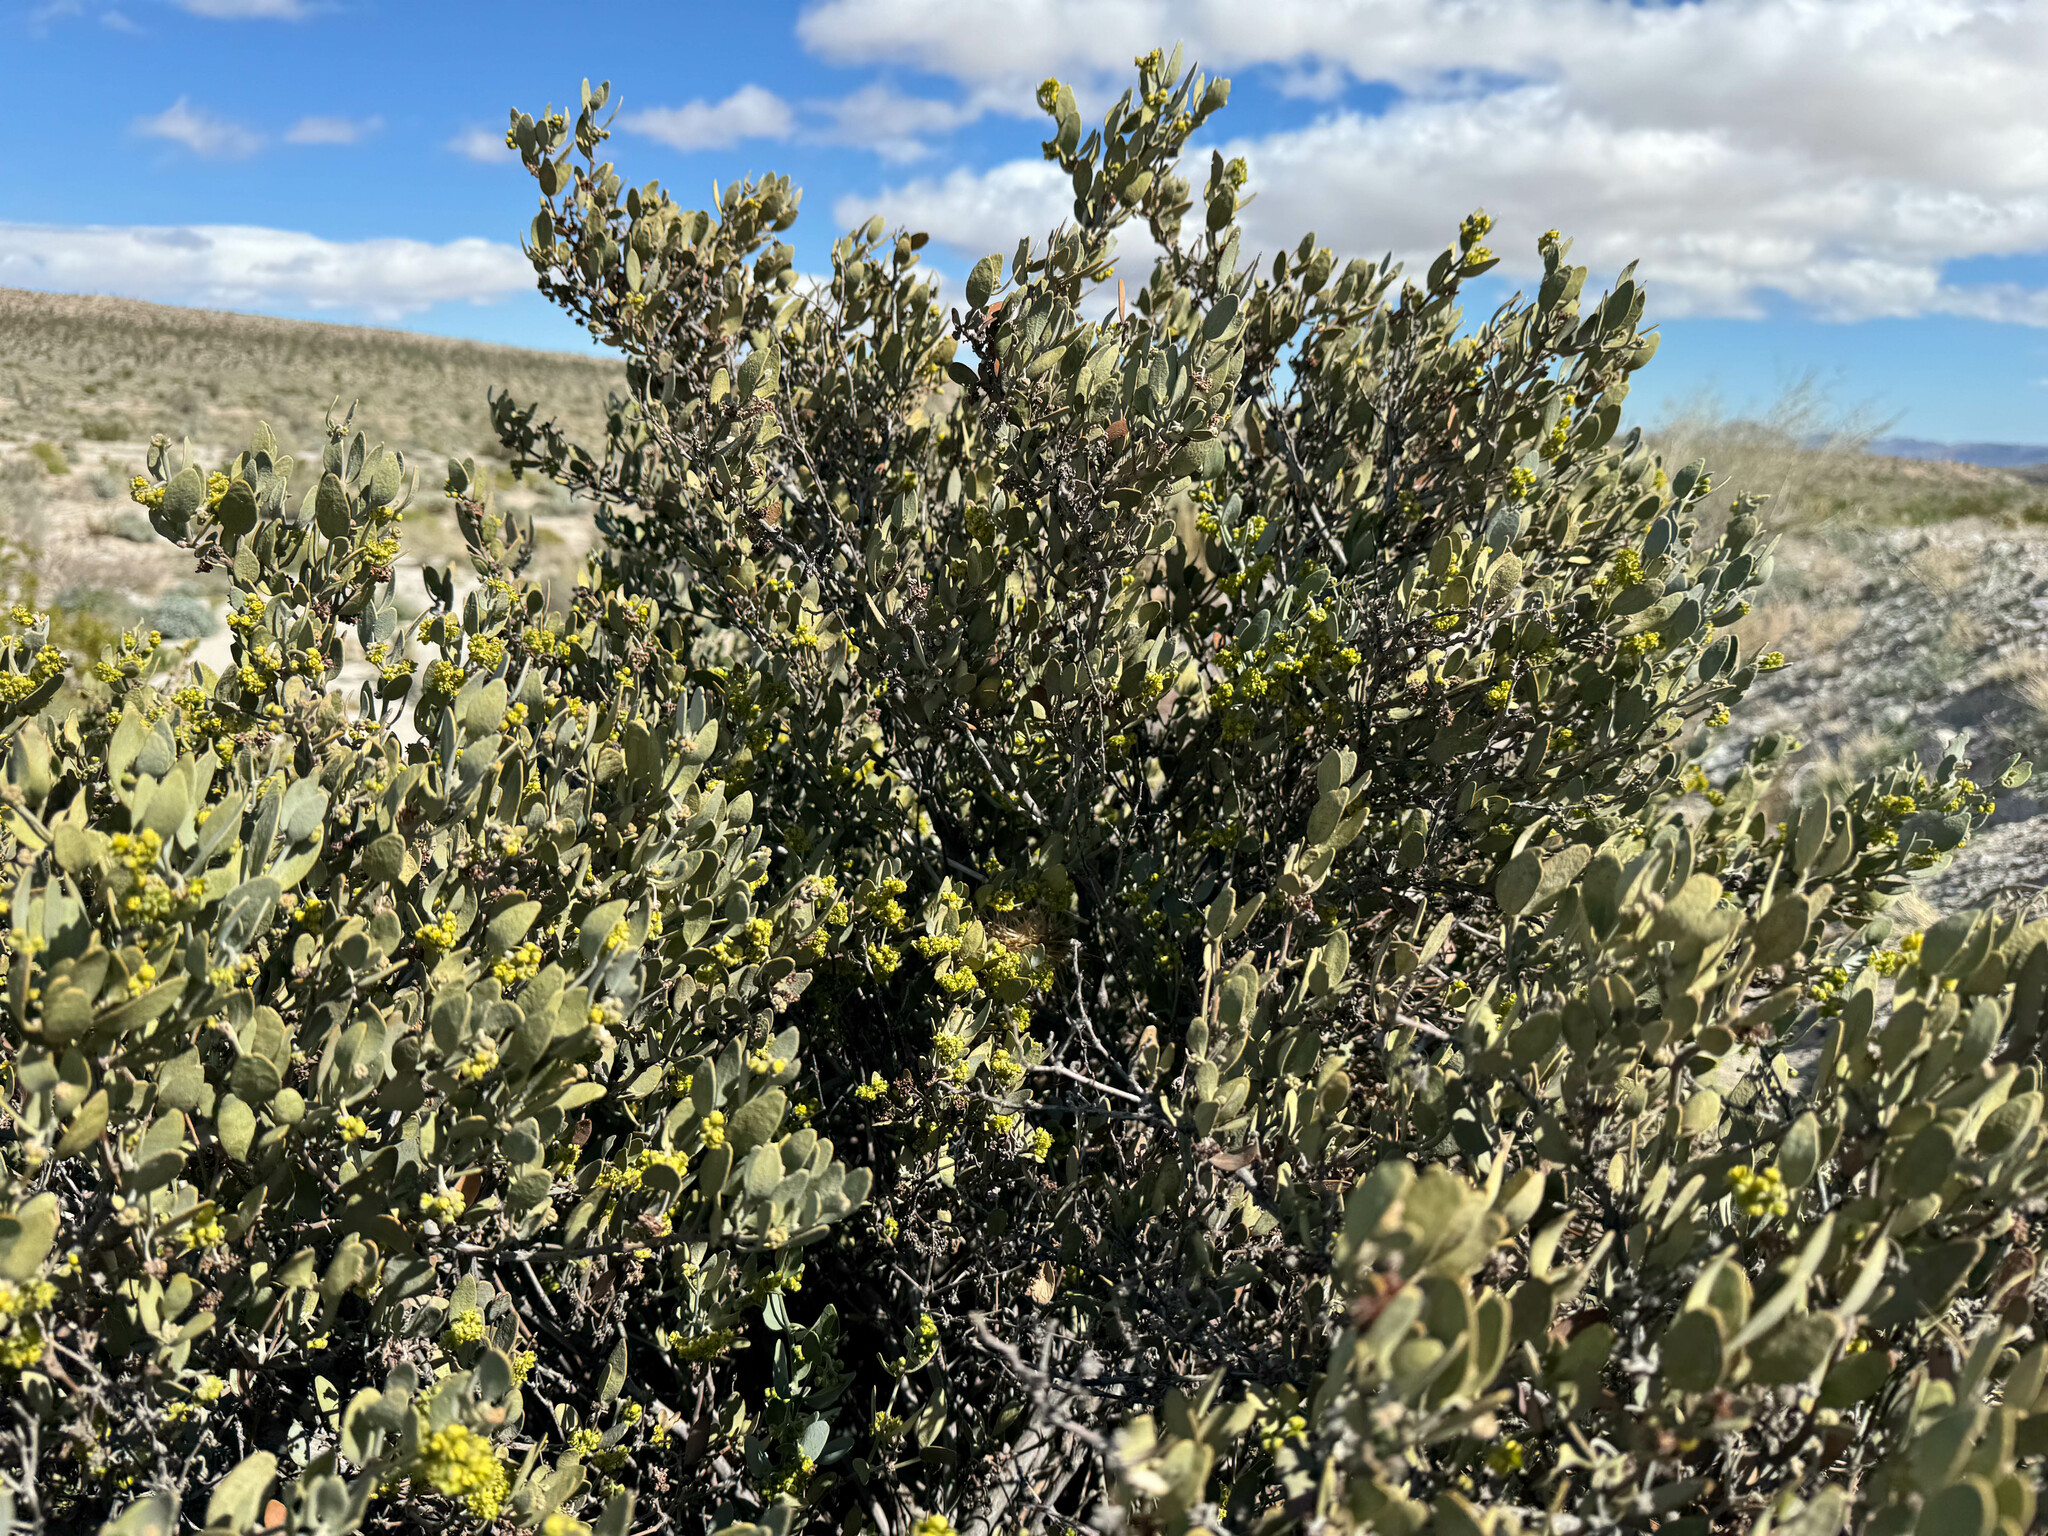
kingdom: Plantae
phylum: Tracheophyta
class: Magnoliopsida
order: Caryophyllales
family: Simmondsiaceae
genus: Simmondsia
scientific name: Simmondsia chinensis
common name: Jojoba
